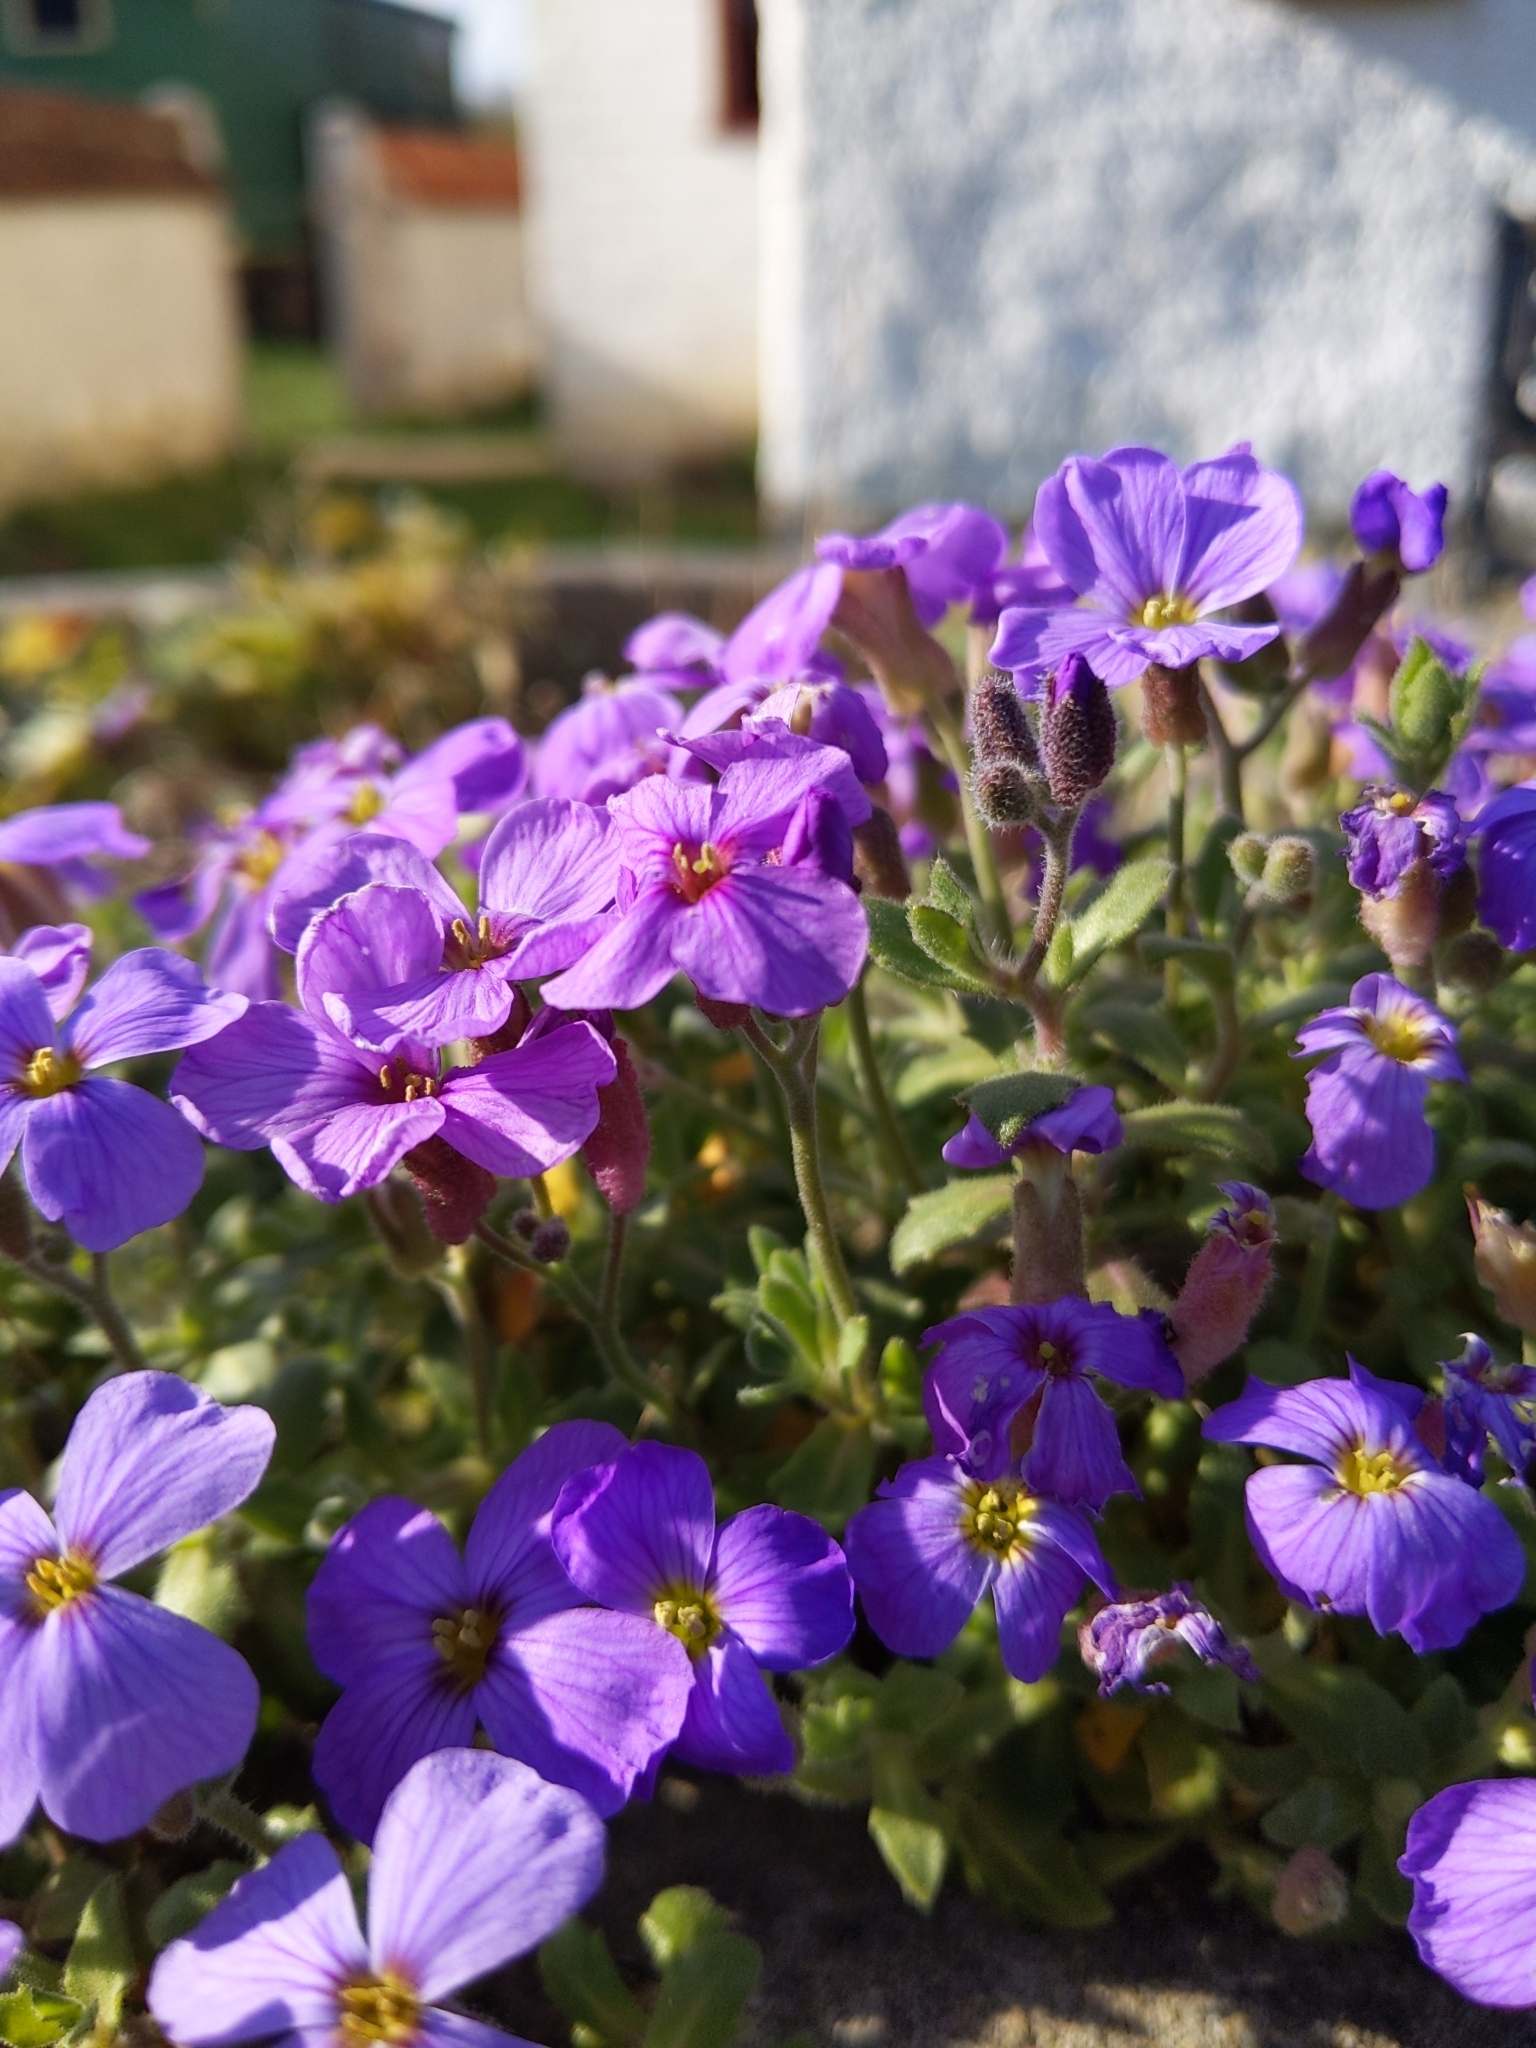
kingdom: Plantae
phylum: Tracheophyta
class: Magnoliopsida
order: Brassicales
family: Brassicaceae
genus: Aubrieta
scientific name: Aubrieta deltoidea
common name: Aubretia
